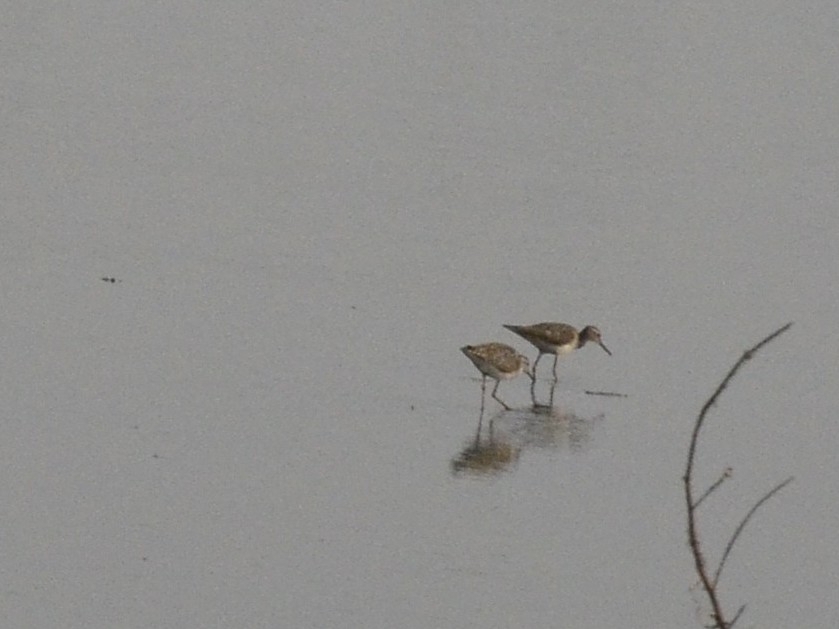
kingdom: Animalia
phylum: Chordata
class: Aves
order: Charadriiformes
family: Scolopacidae
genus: Tringa
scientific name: Tringa glareola
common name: Wood sandpiper
